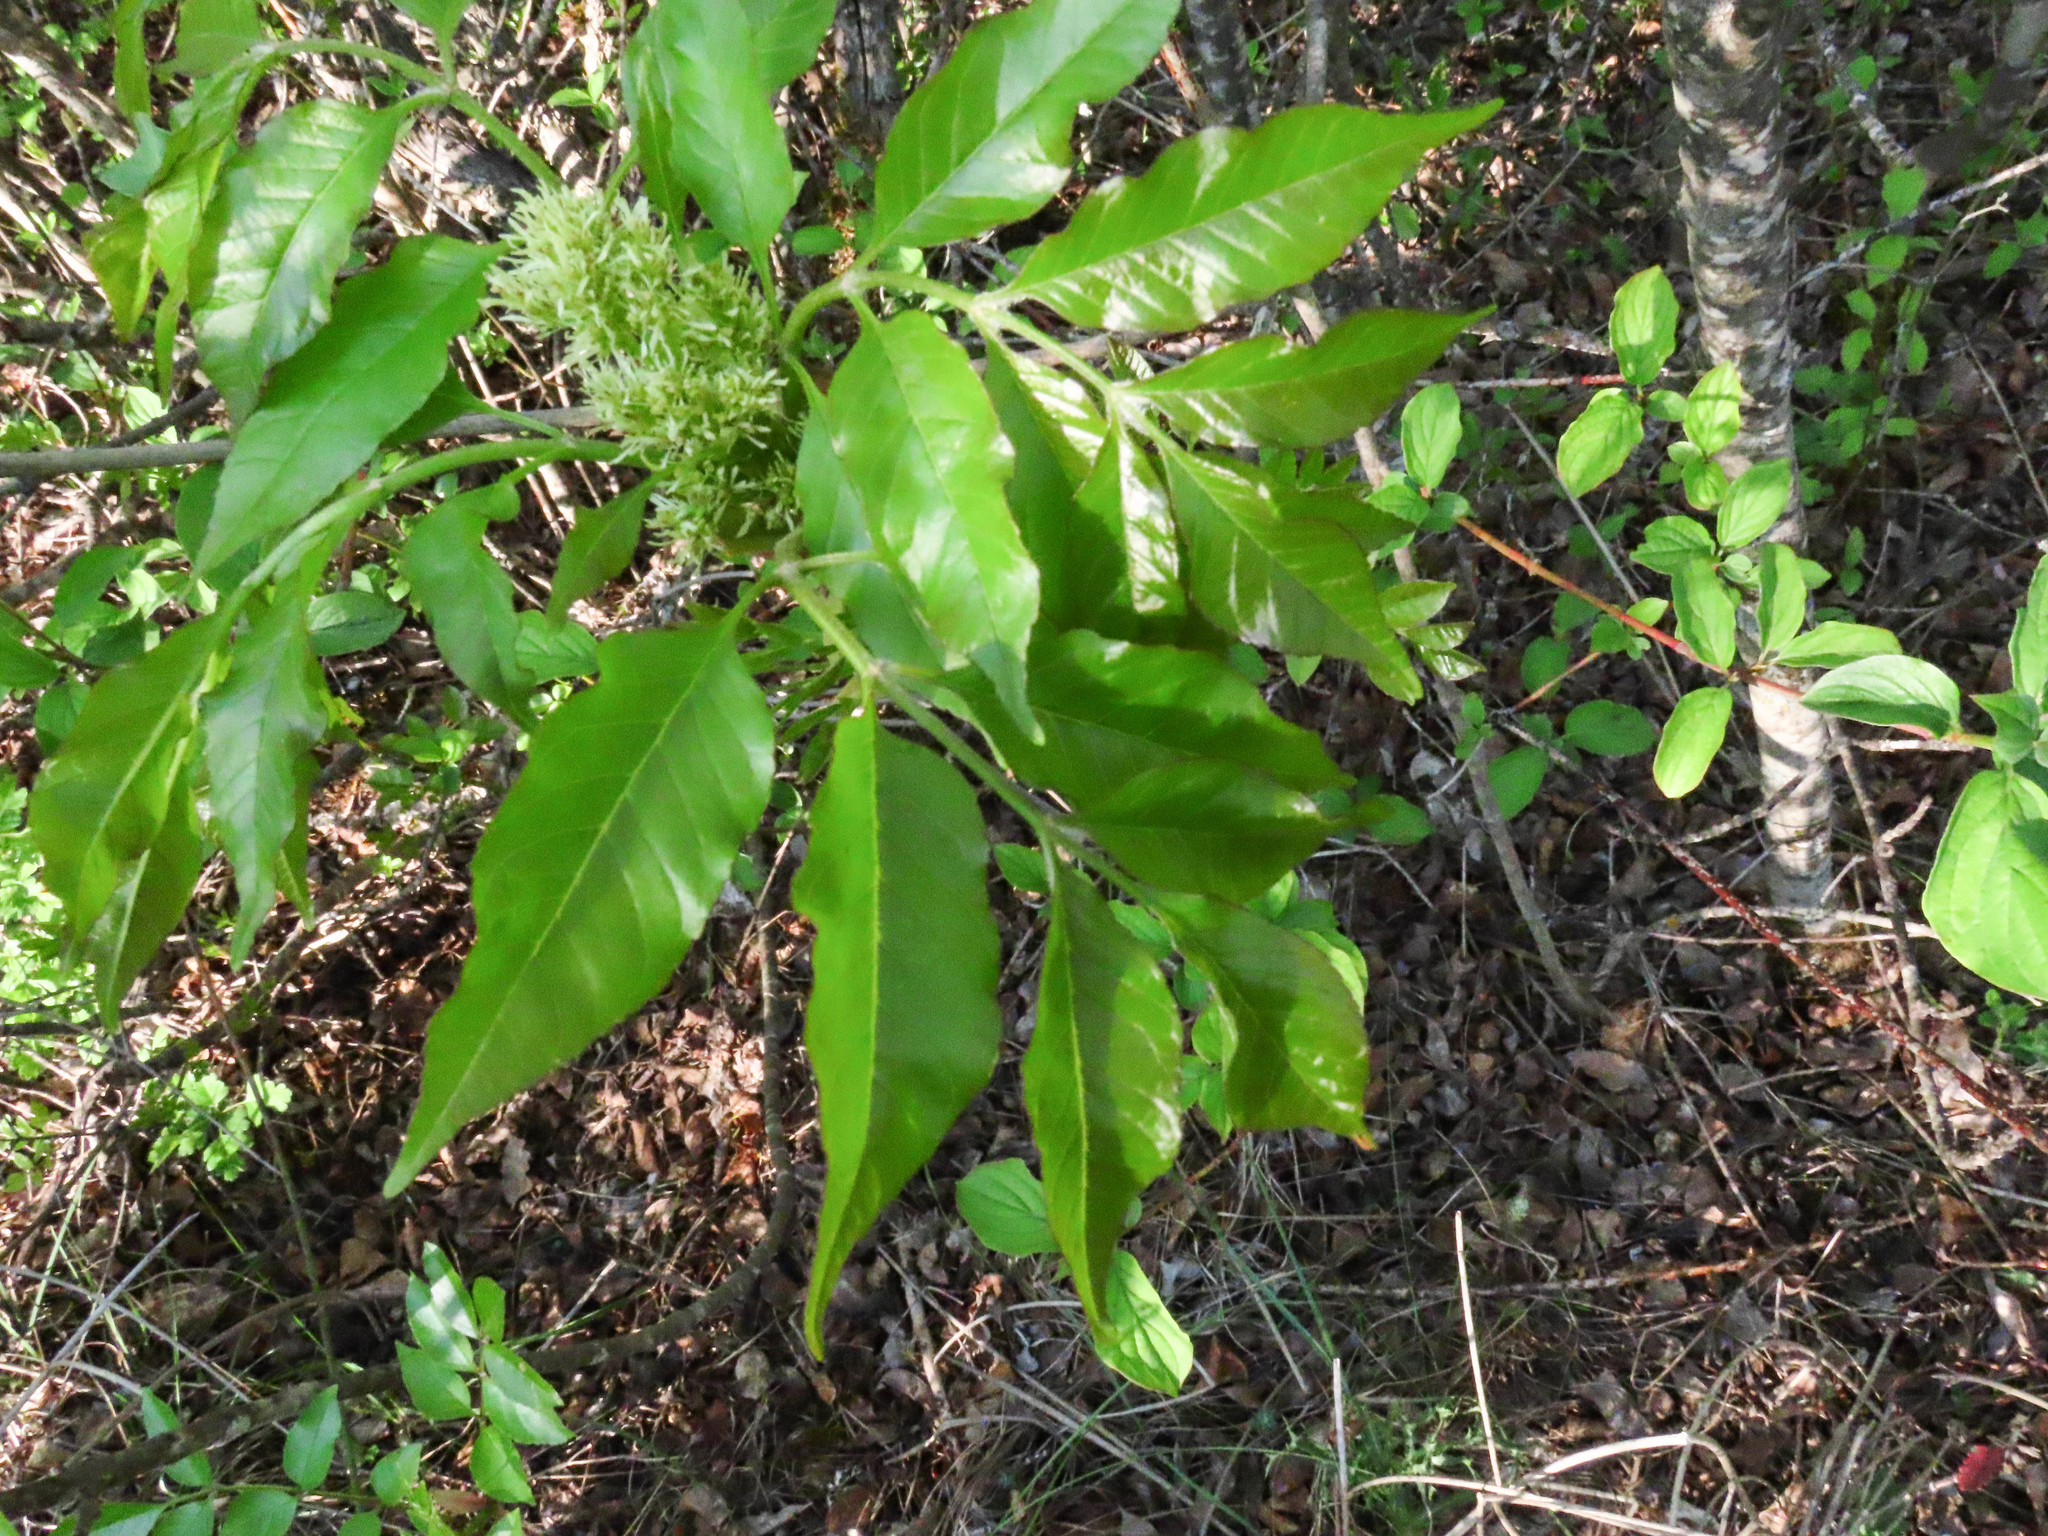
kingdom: Plantae
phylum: Tracheophyta
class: Magnoliopsida
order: Lamiales
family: Oleaceae
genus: Fraxinus
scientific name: Fraxinus ornus
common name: Manna ash
